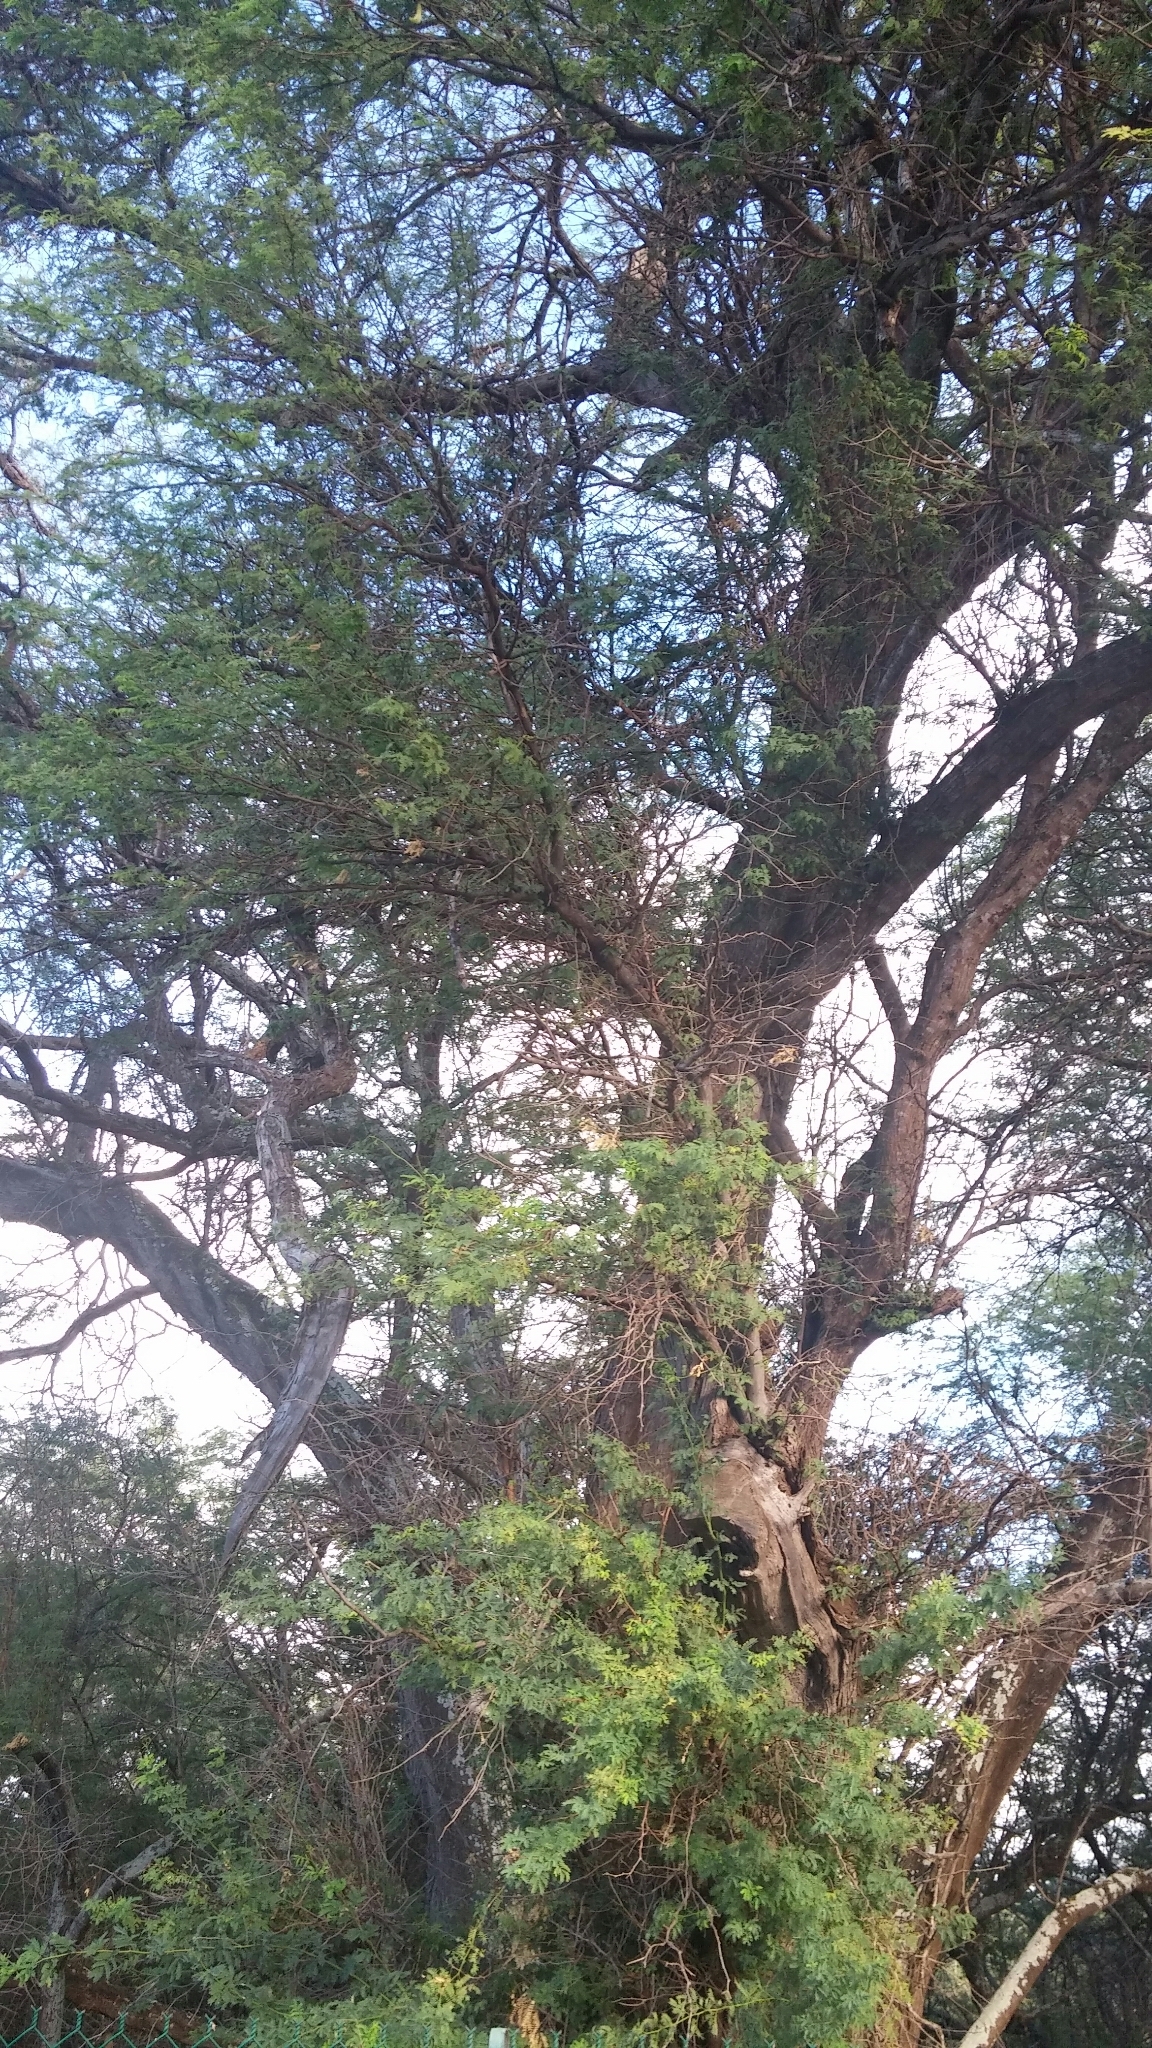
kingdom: Plantae
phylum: Tracheophyta
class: Magnoliopsida
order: Fabales
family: Fabaceae
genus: Prosopis
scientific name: Prosopis pallida
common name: Mesquite
